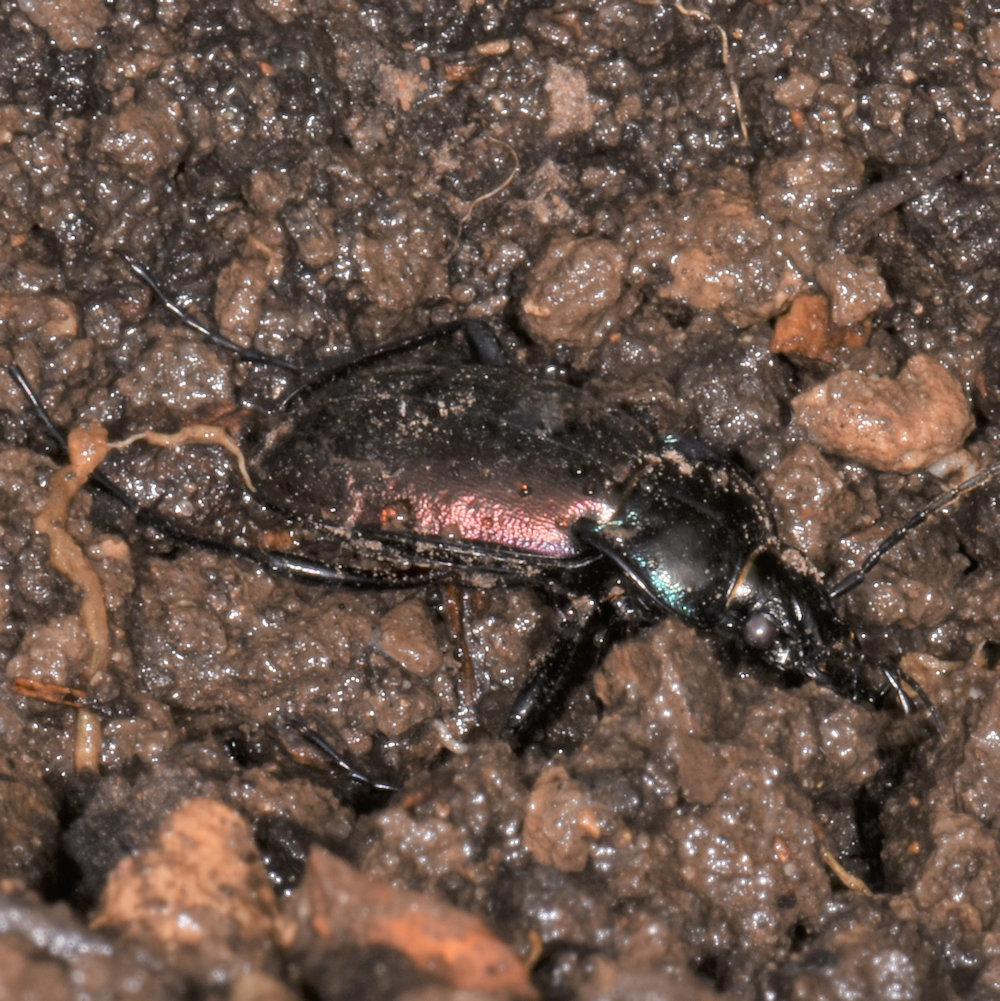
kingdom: Animalia
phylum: Arthropoda
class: Insecta
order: Coleoptera
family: Carabidae
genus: Carabus
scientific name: Carabus nemoralis
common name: European ground beetle
